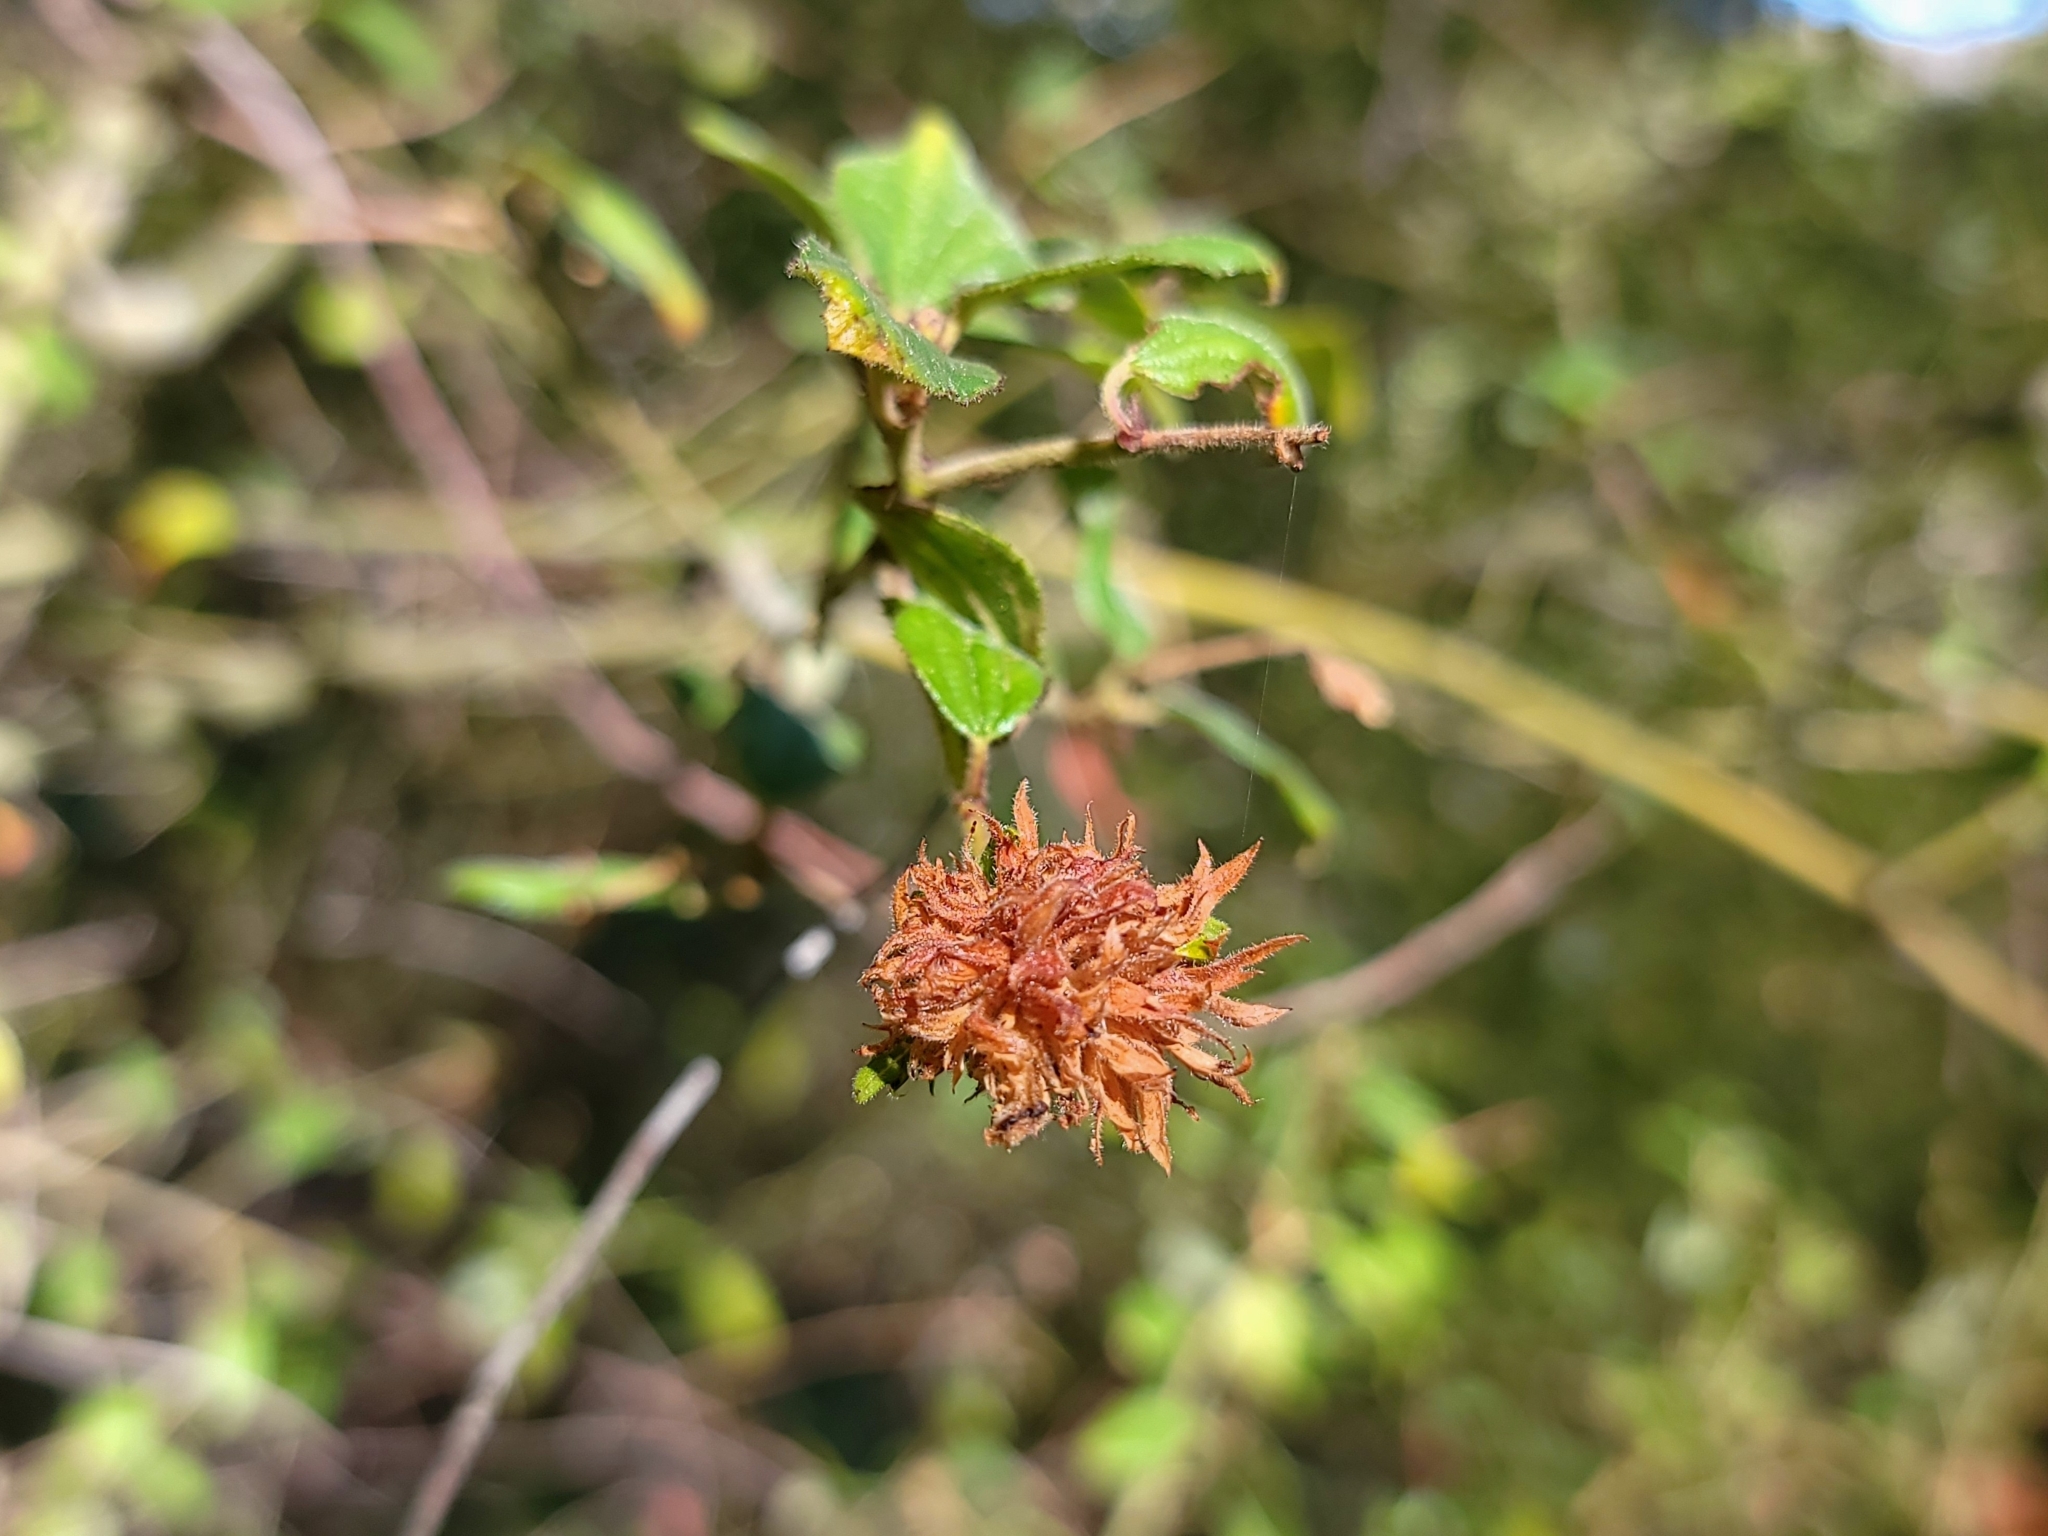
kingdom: Animalia
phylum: Arthropoda
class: Insecta
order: Diptera
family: Cecidomyiidae
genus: Asphondylia
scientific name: Asphondylia ceanothi
